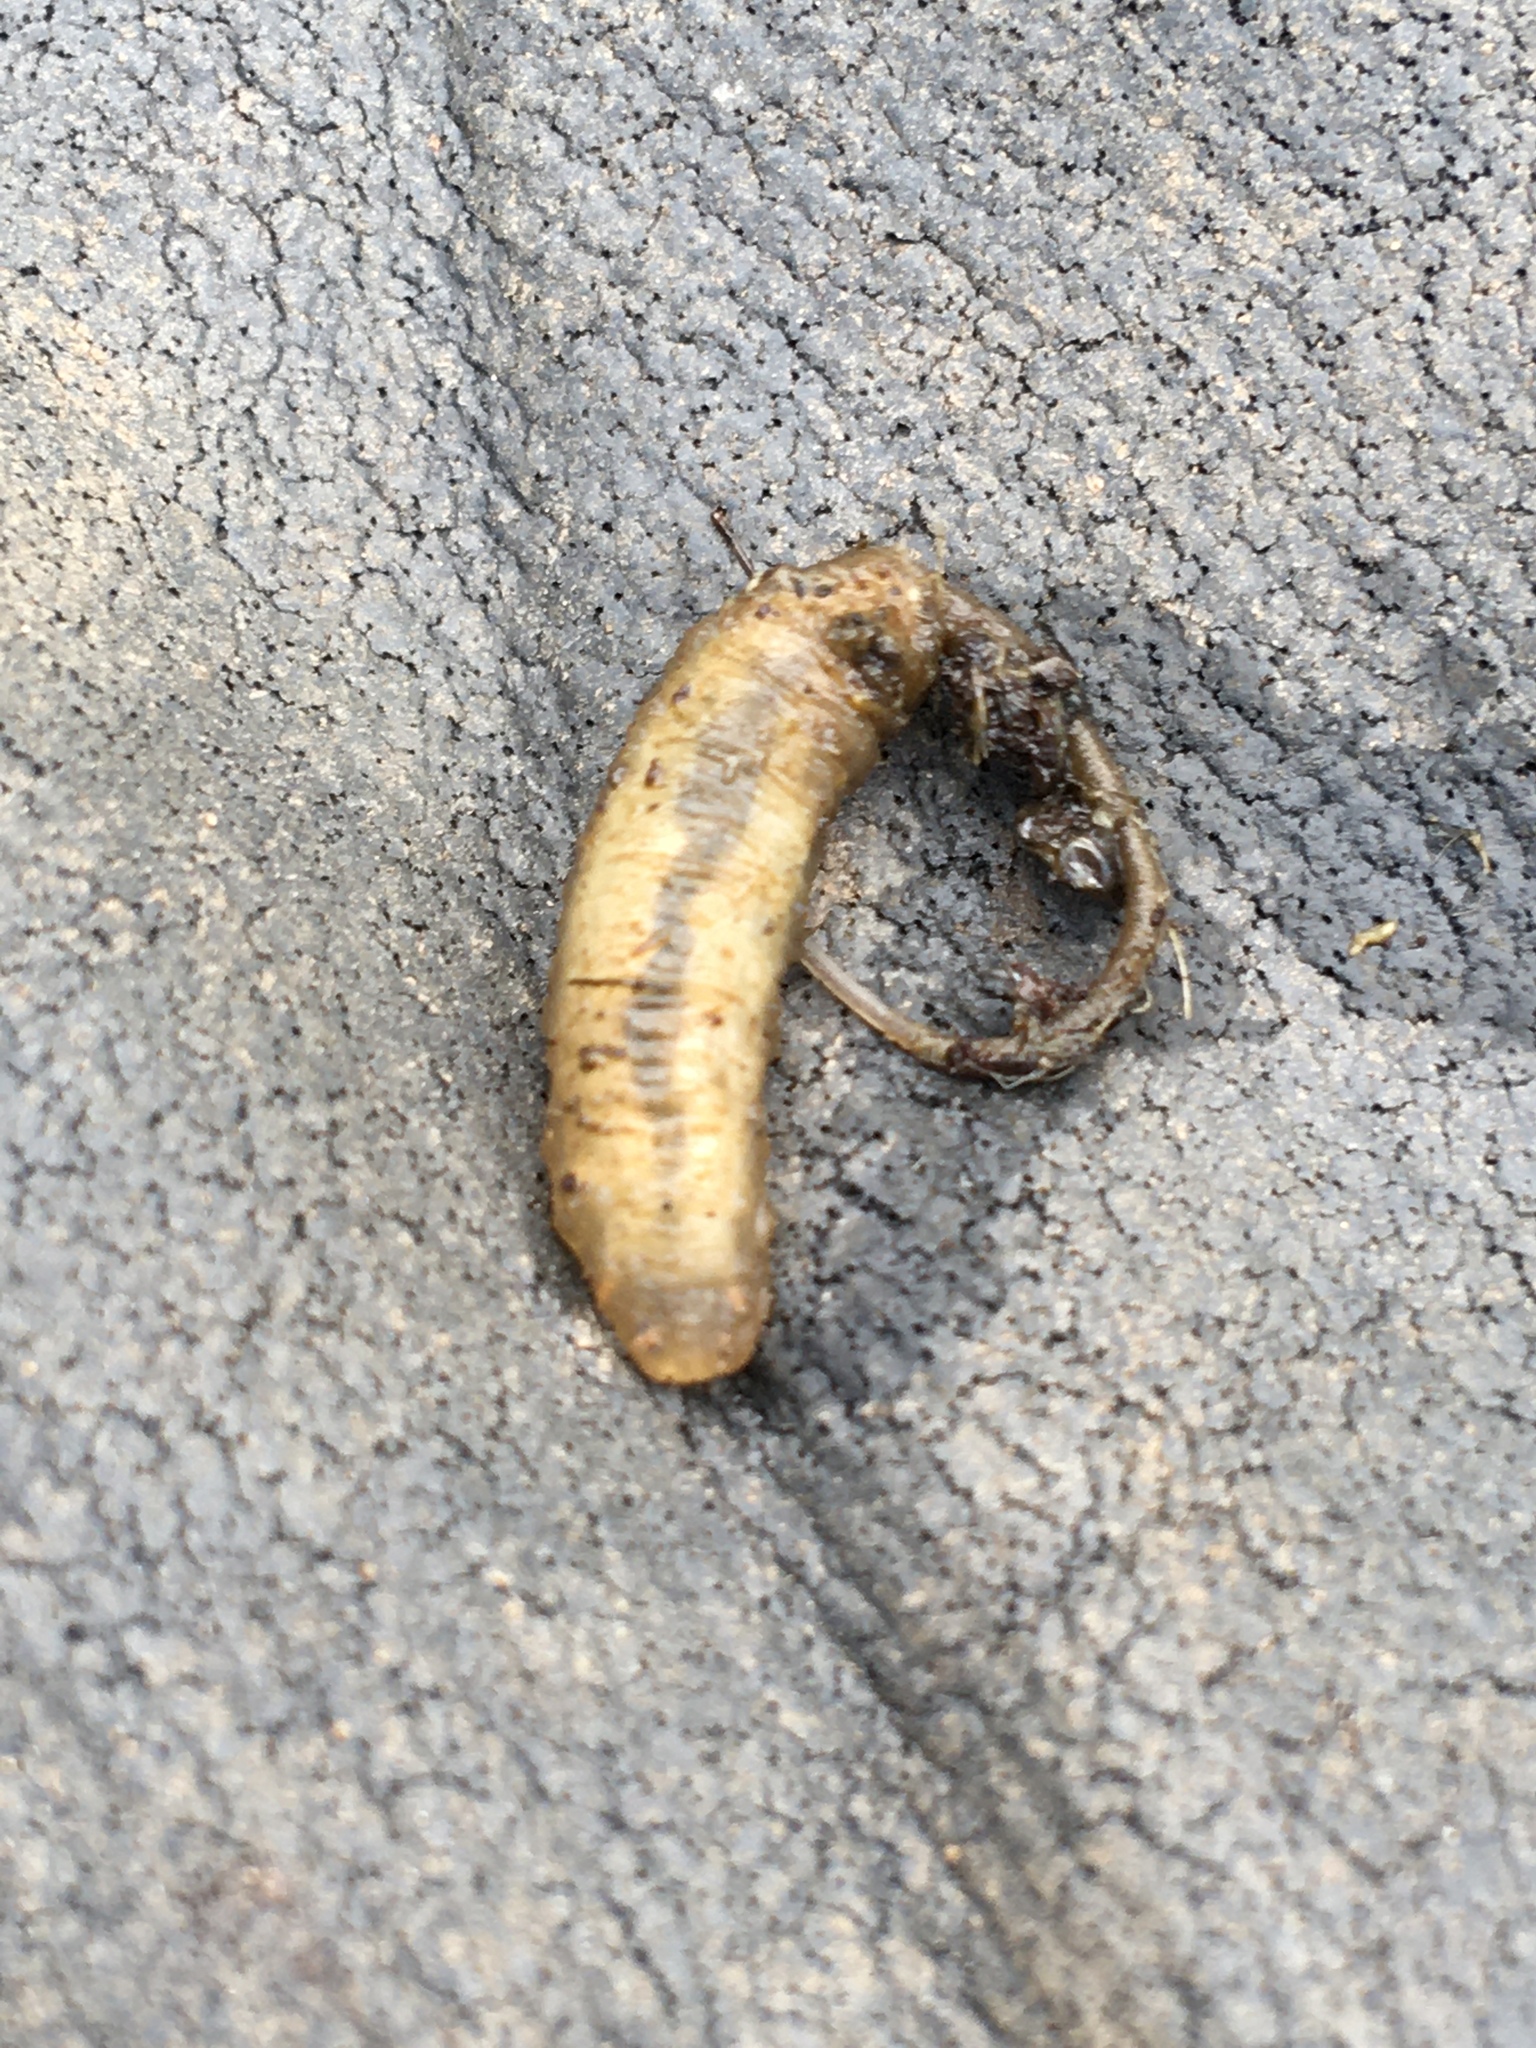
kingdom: Animalia
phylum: Arthropoda
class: Insecta
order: Diptera
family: Syrphidae
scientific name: Syrphidae
